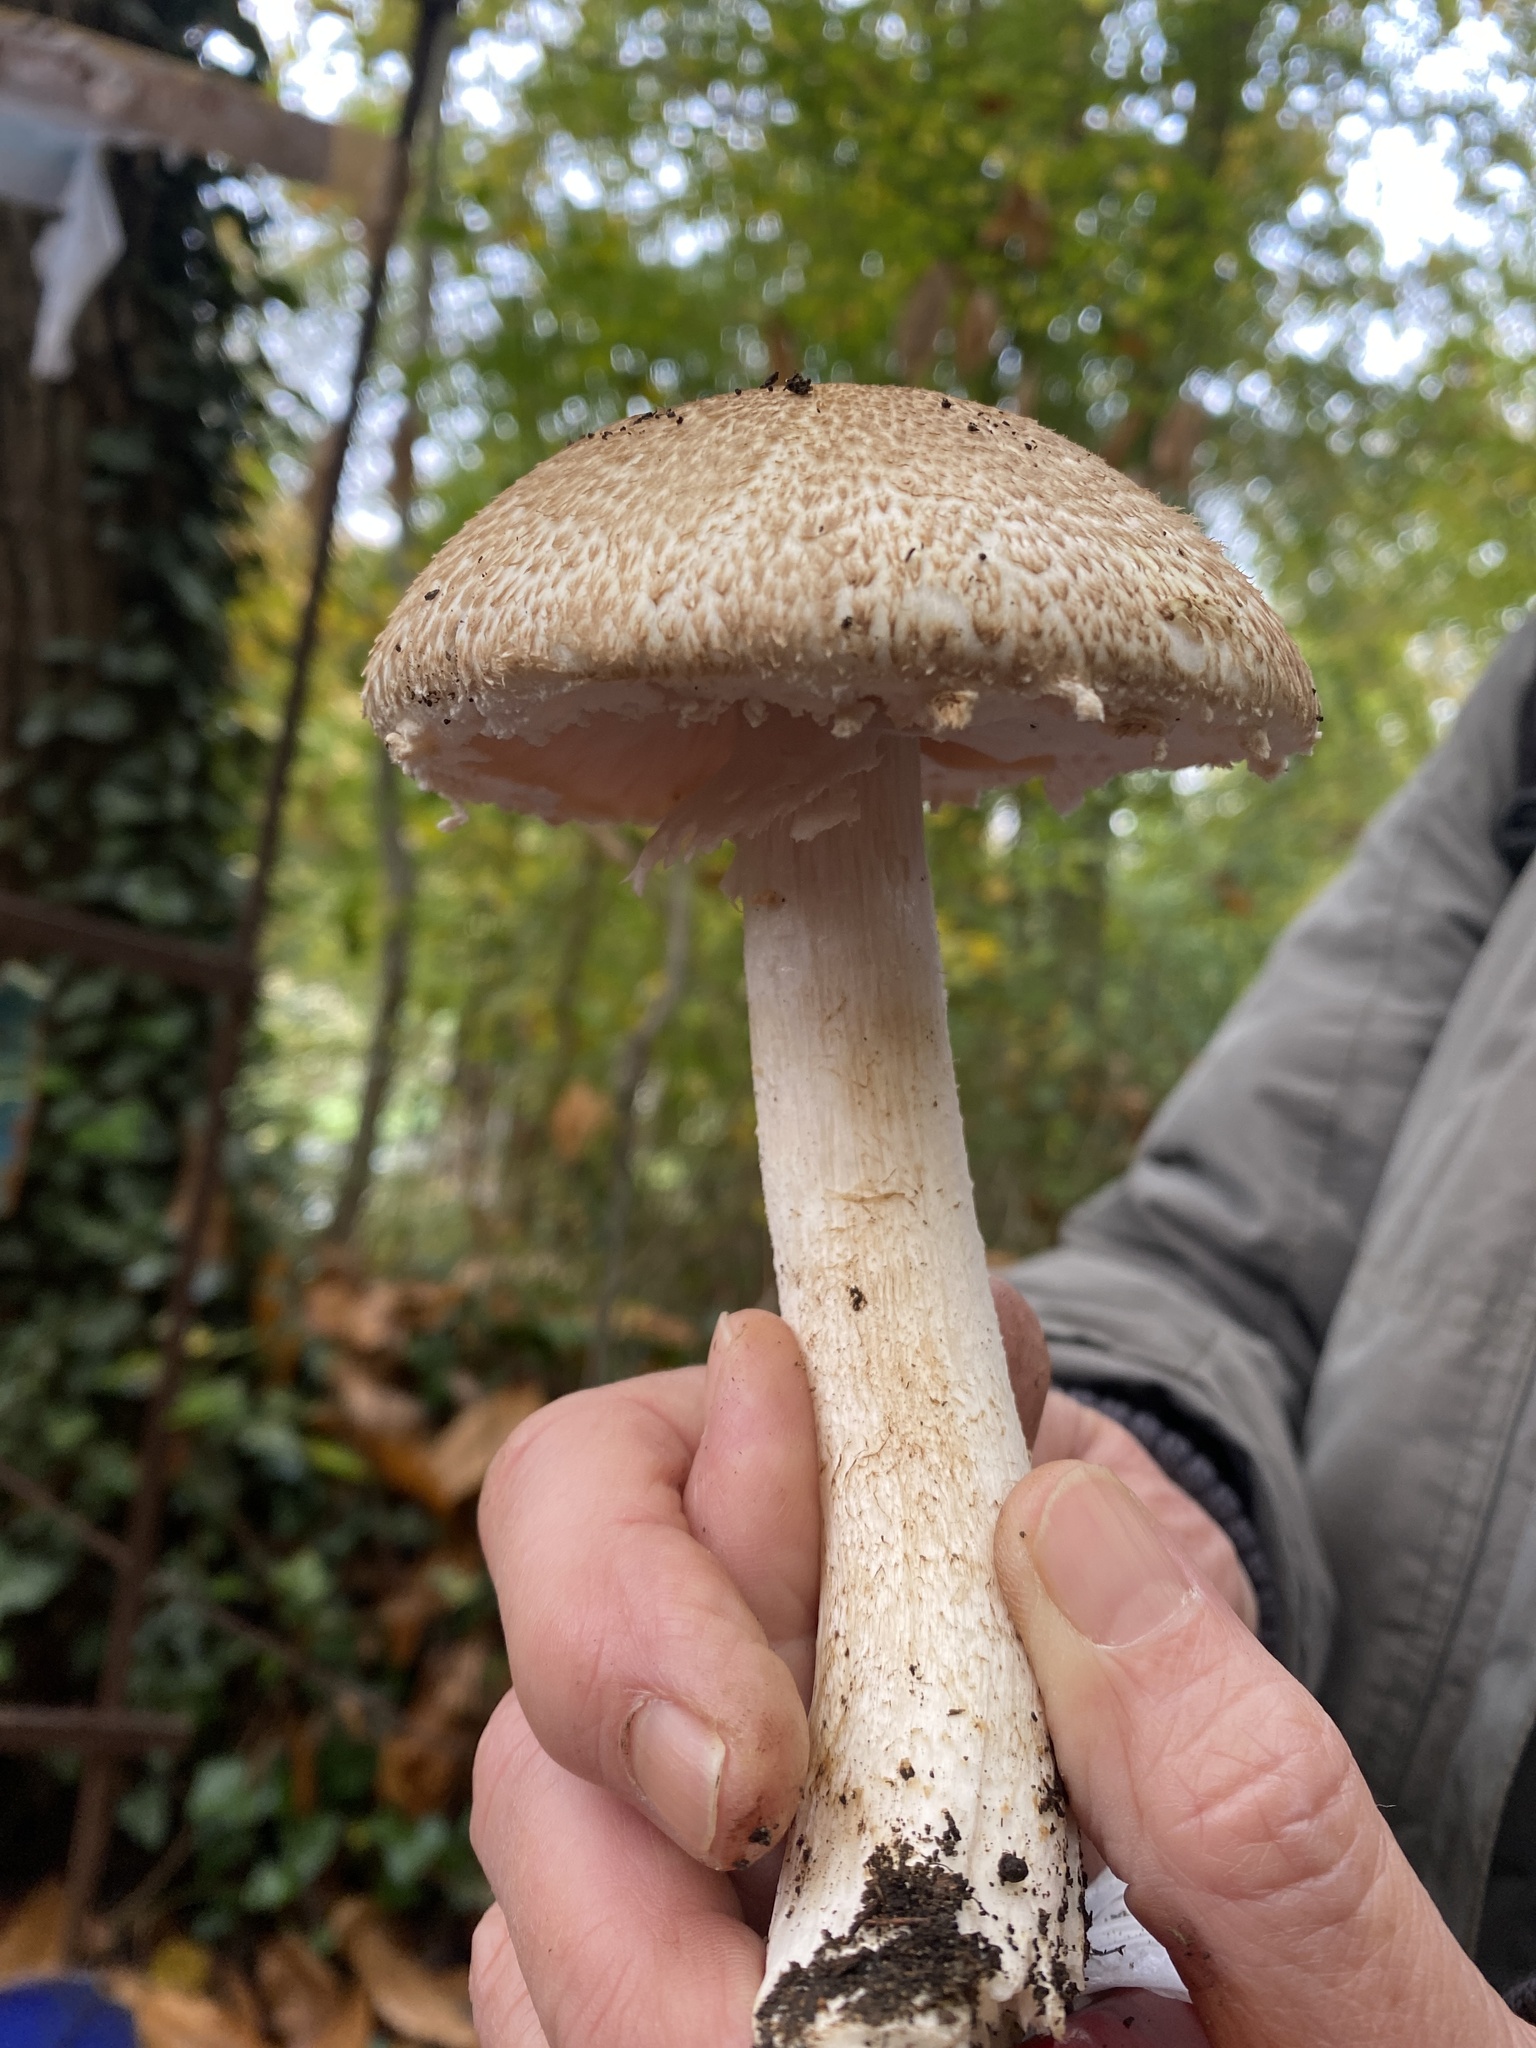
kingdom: Fungi
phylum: Basidiomycota
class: Agaricomycetes
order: Agaricales
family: Agaricaceae
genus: Agaricus
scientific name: Agaricus moelleri
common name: Inky mushroom
